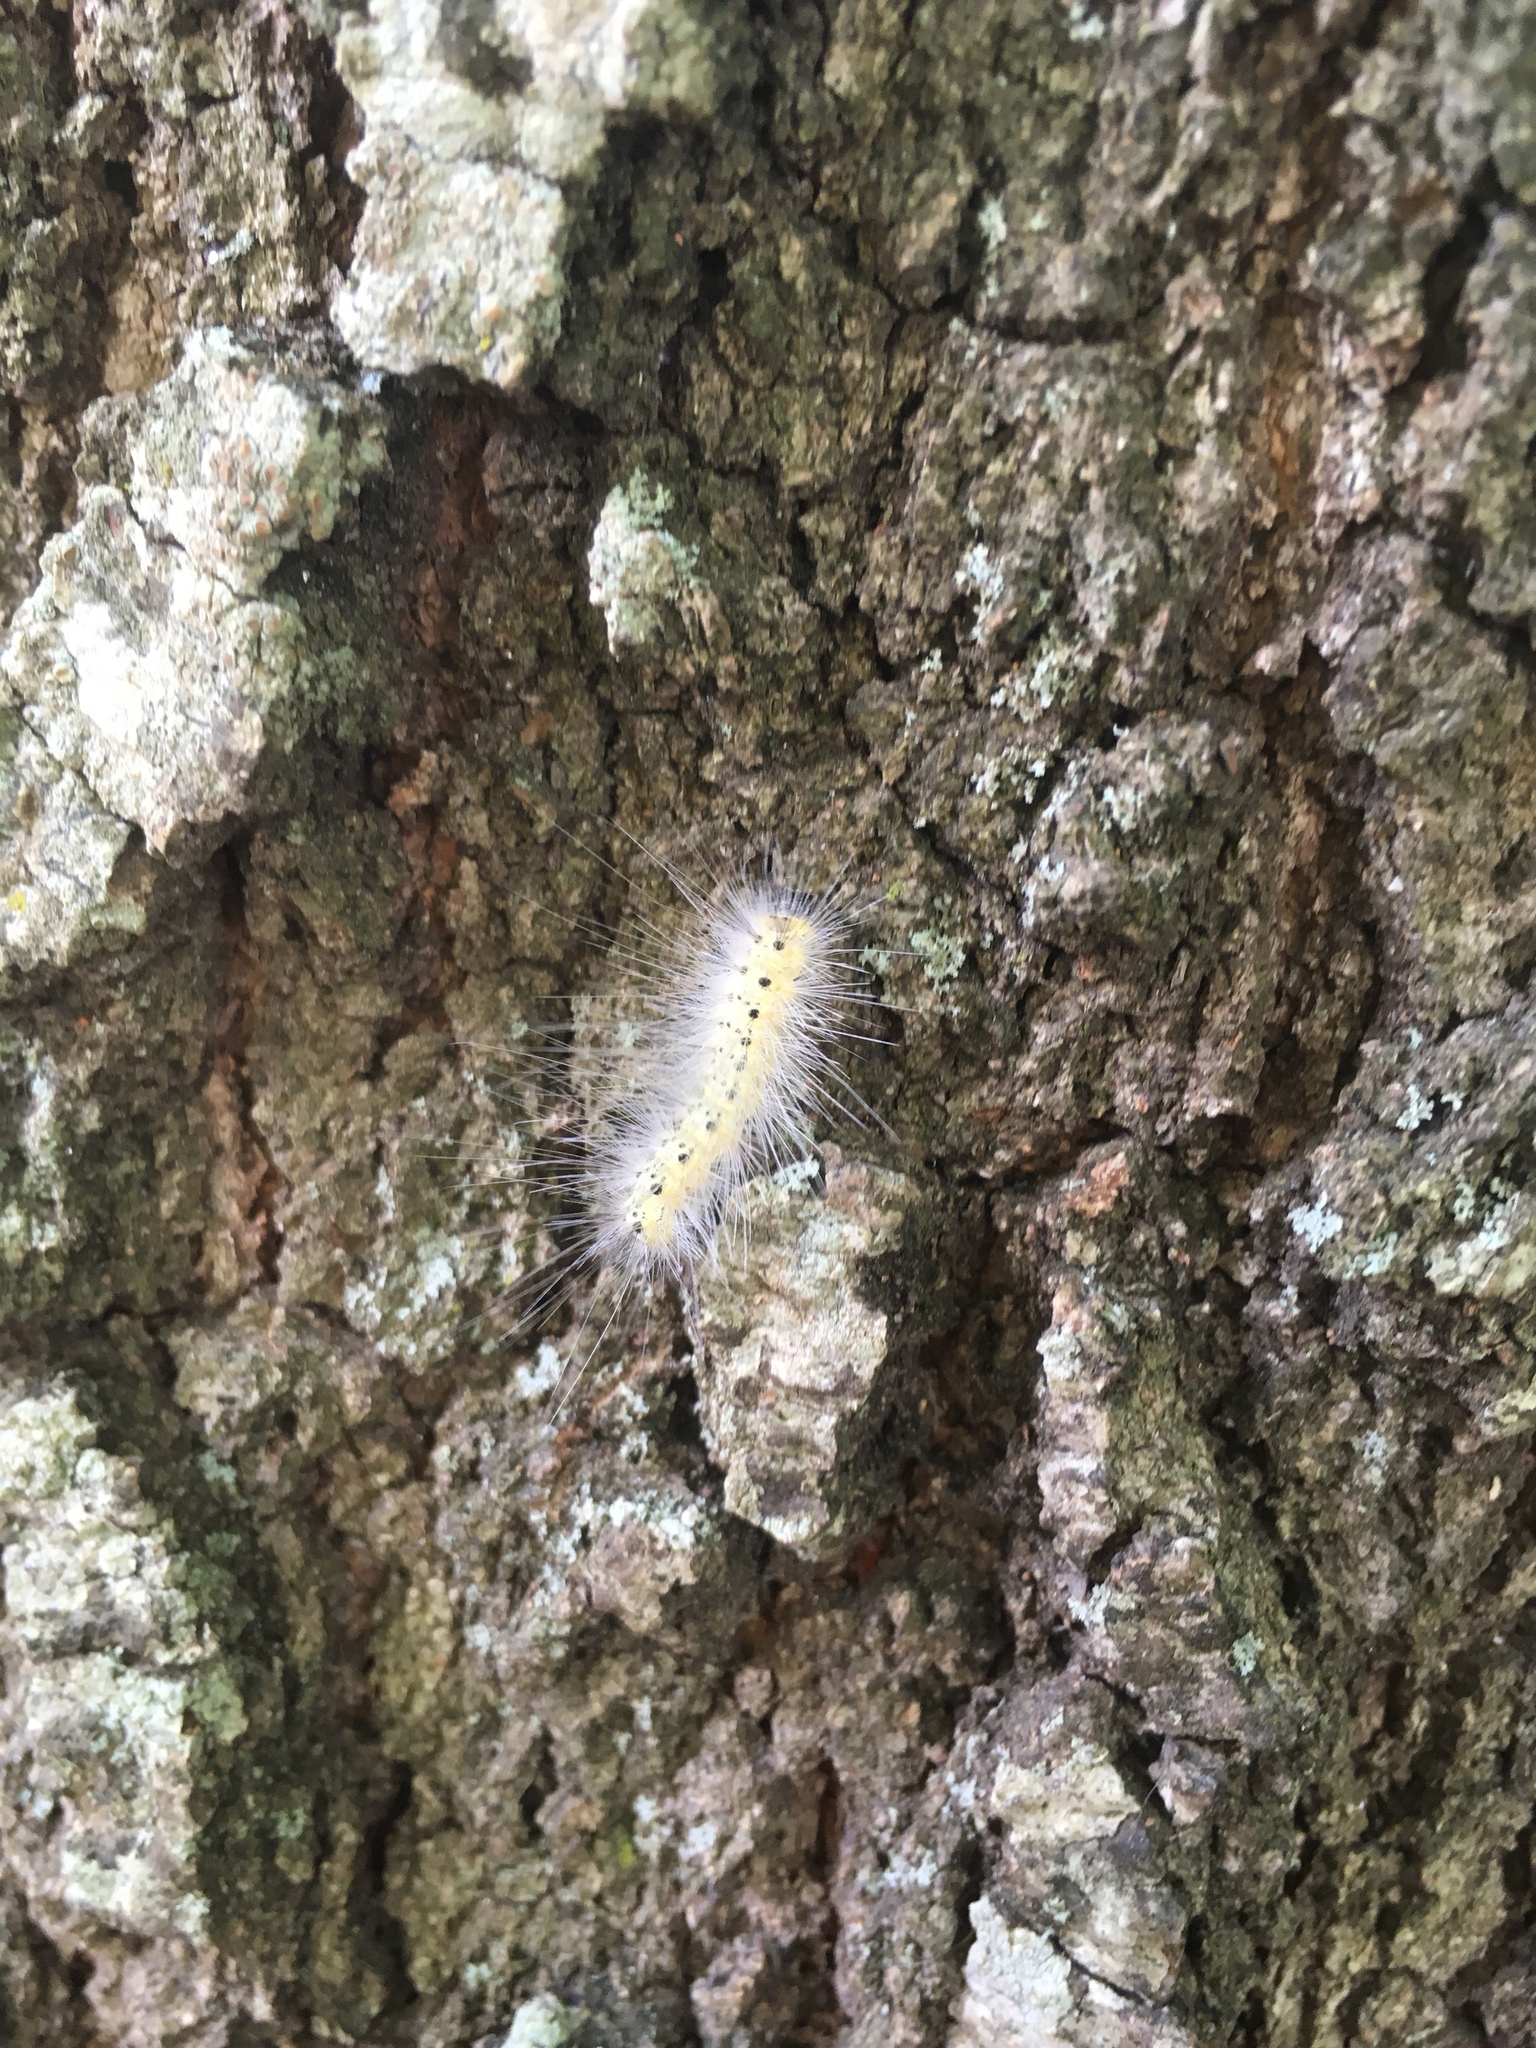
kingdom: Animalia
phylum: Arthropoda
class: Insecta
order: Lepidoptera
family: Erebidae
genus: Hyphantria
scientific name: Hyphantria cunea
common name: American white moth
